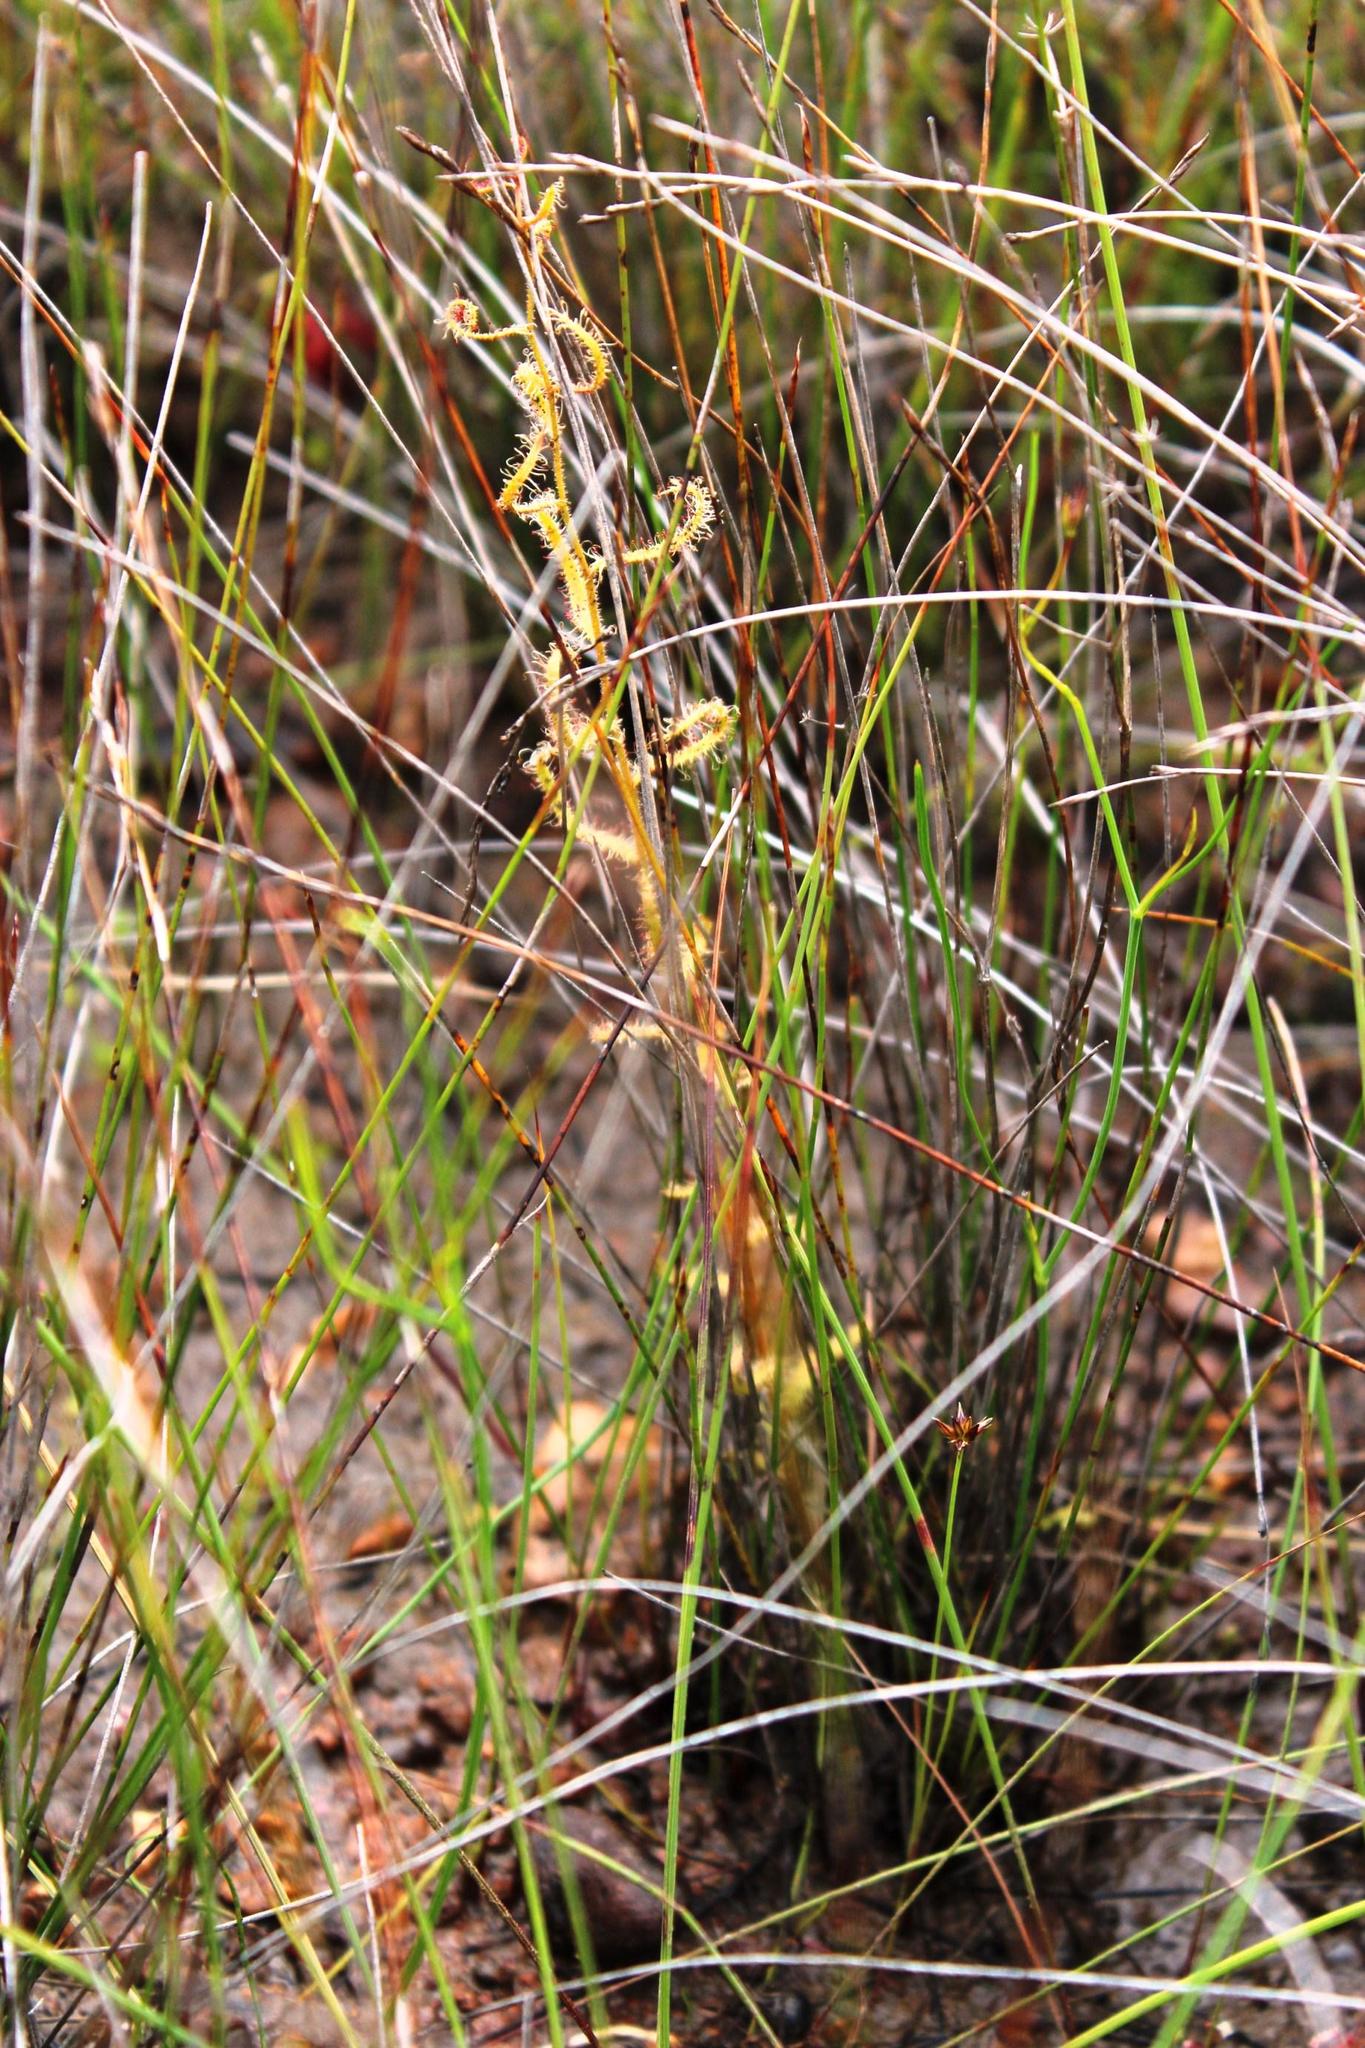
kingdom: Plantae
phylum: Tracheophyta
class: Magnoliopsida
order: Caryophyllales
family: Droseraceae
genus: Drosera
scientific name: Drosera cistiflora
